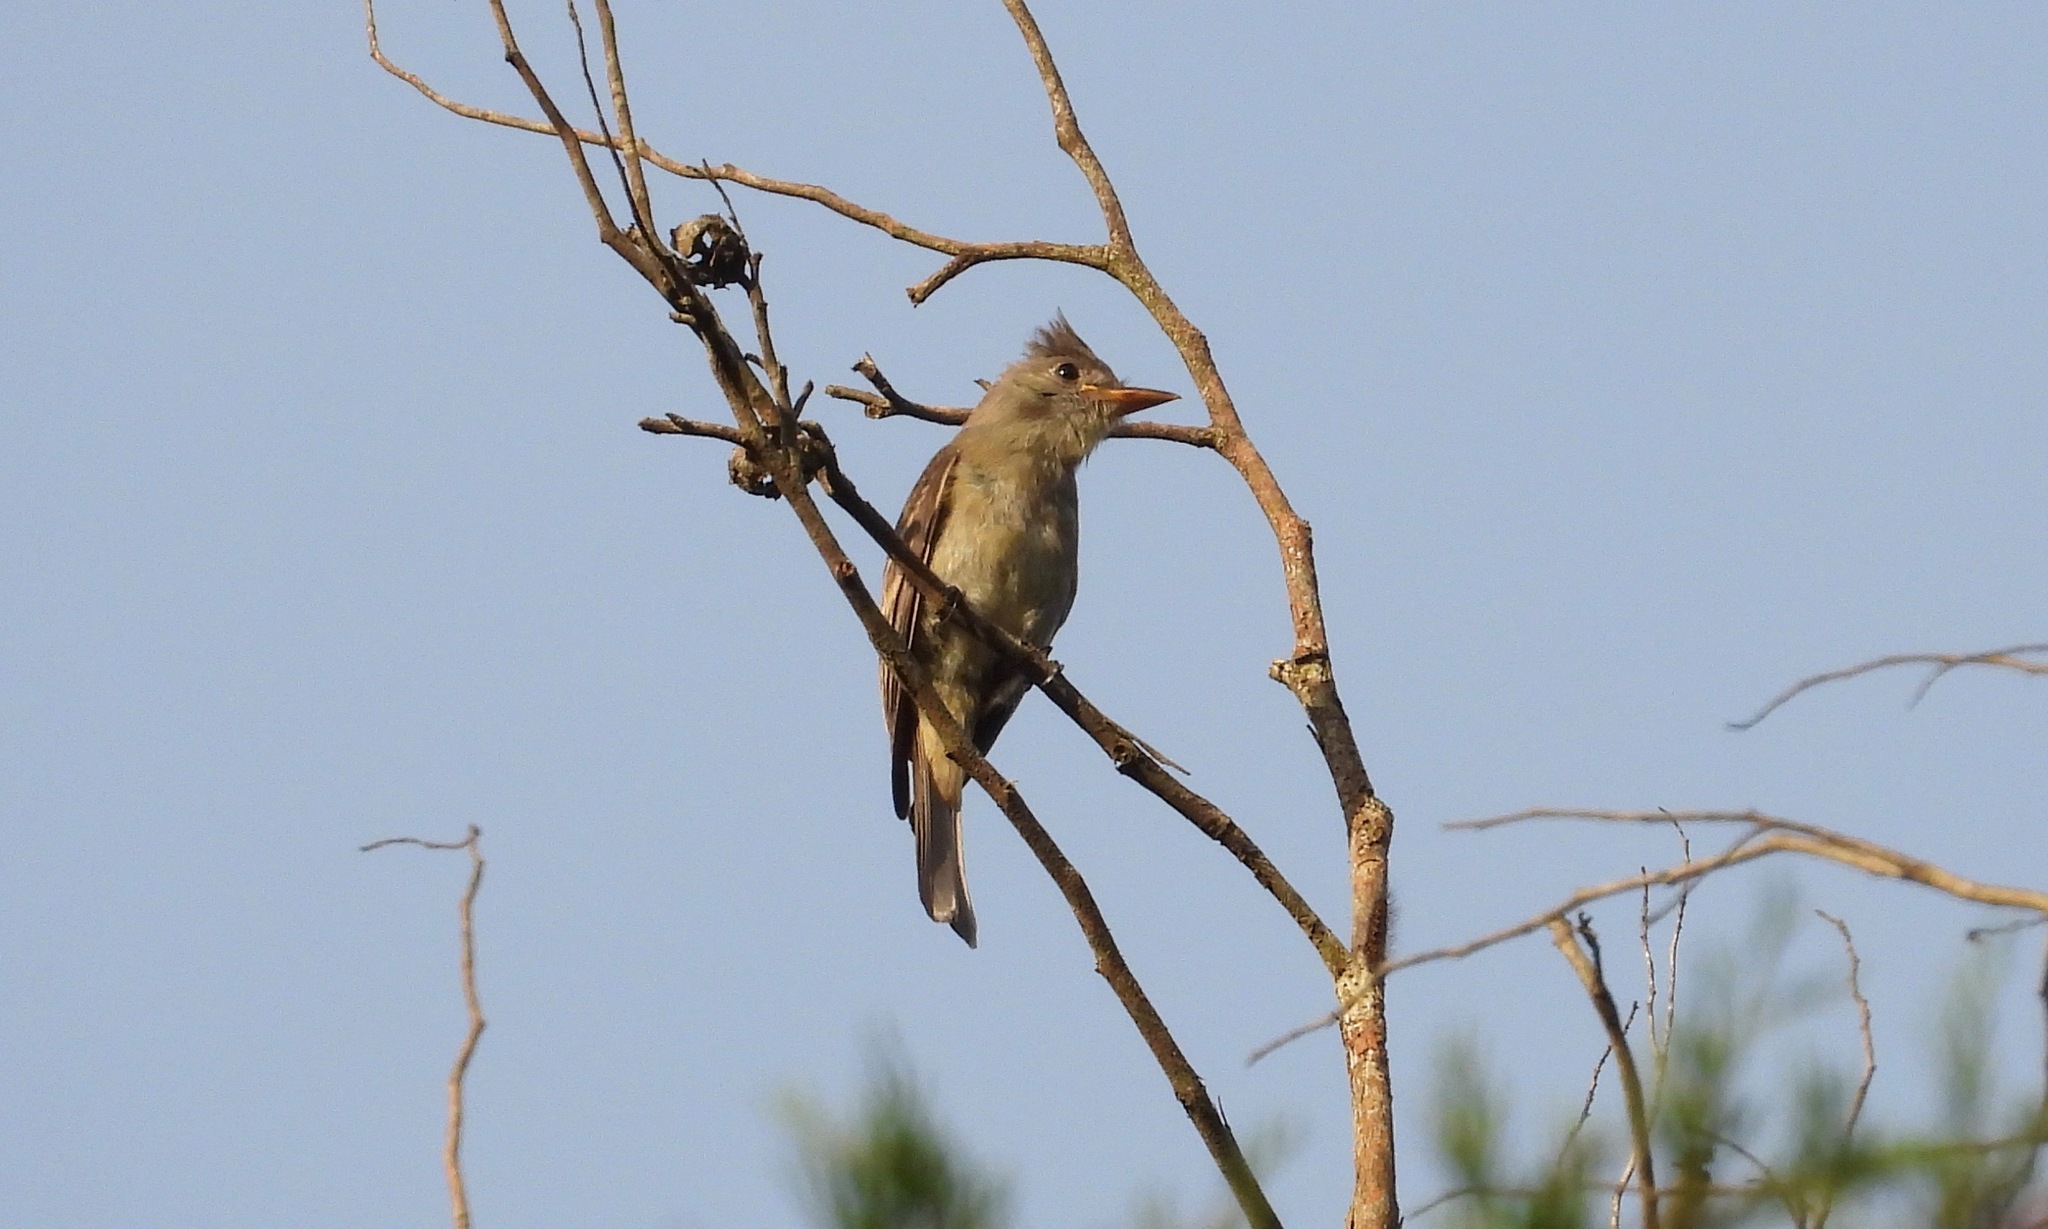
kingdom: Animalia
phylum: Chordata
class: Aves
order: Passeriformes
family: Tyrannidae
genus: Contopus
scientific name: Contopus pertinax
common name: Greater pewee
